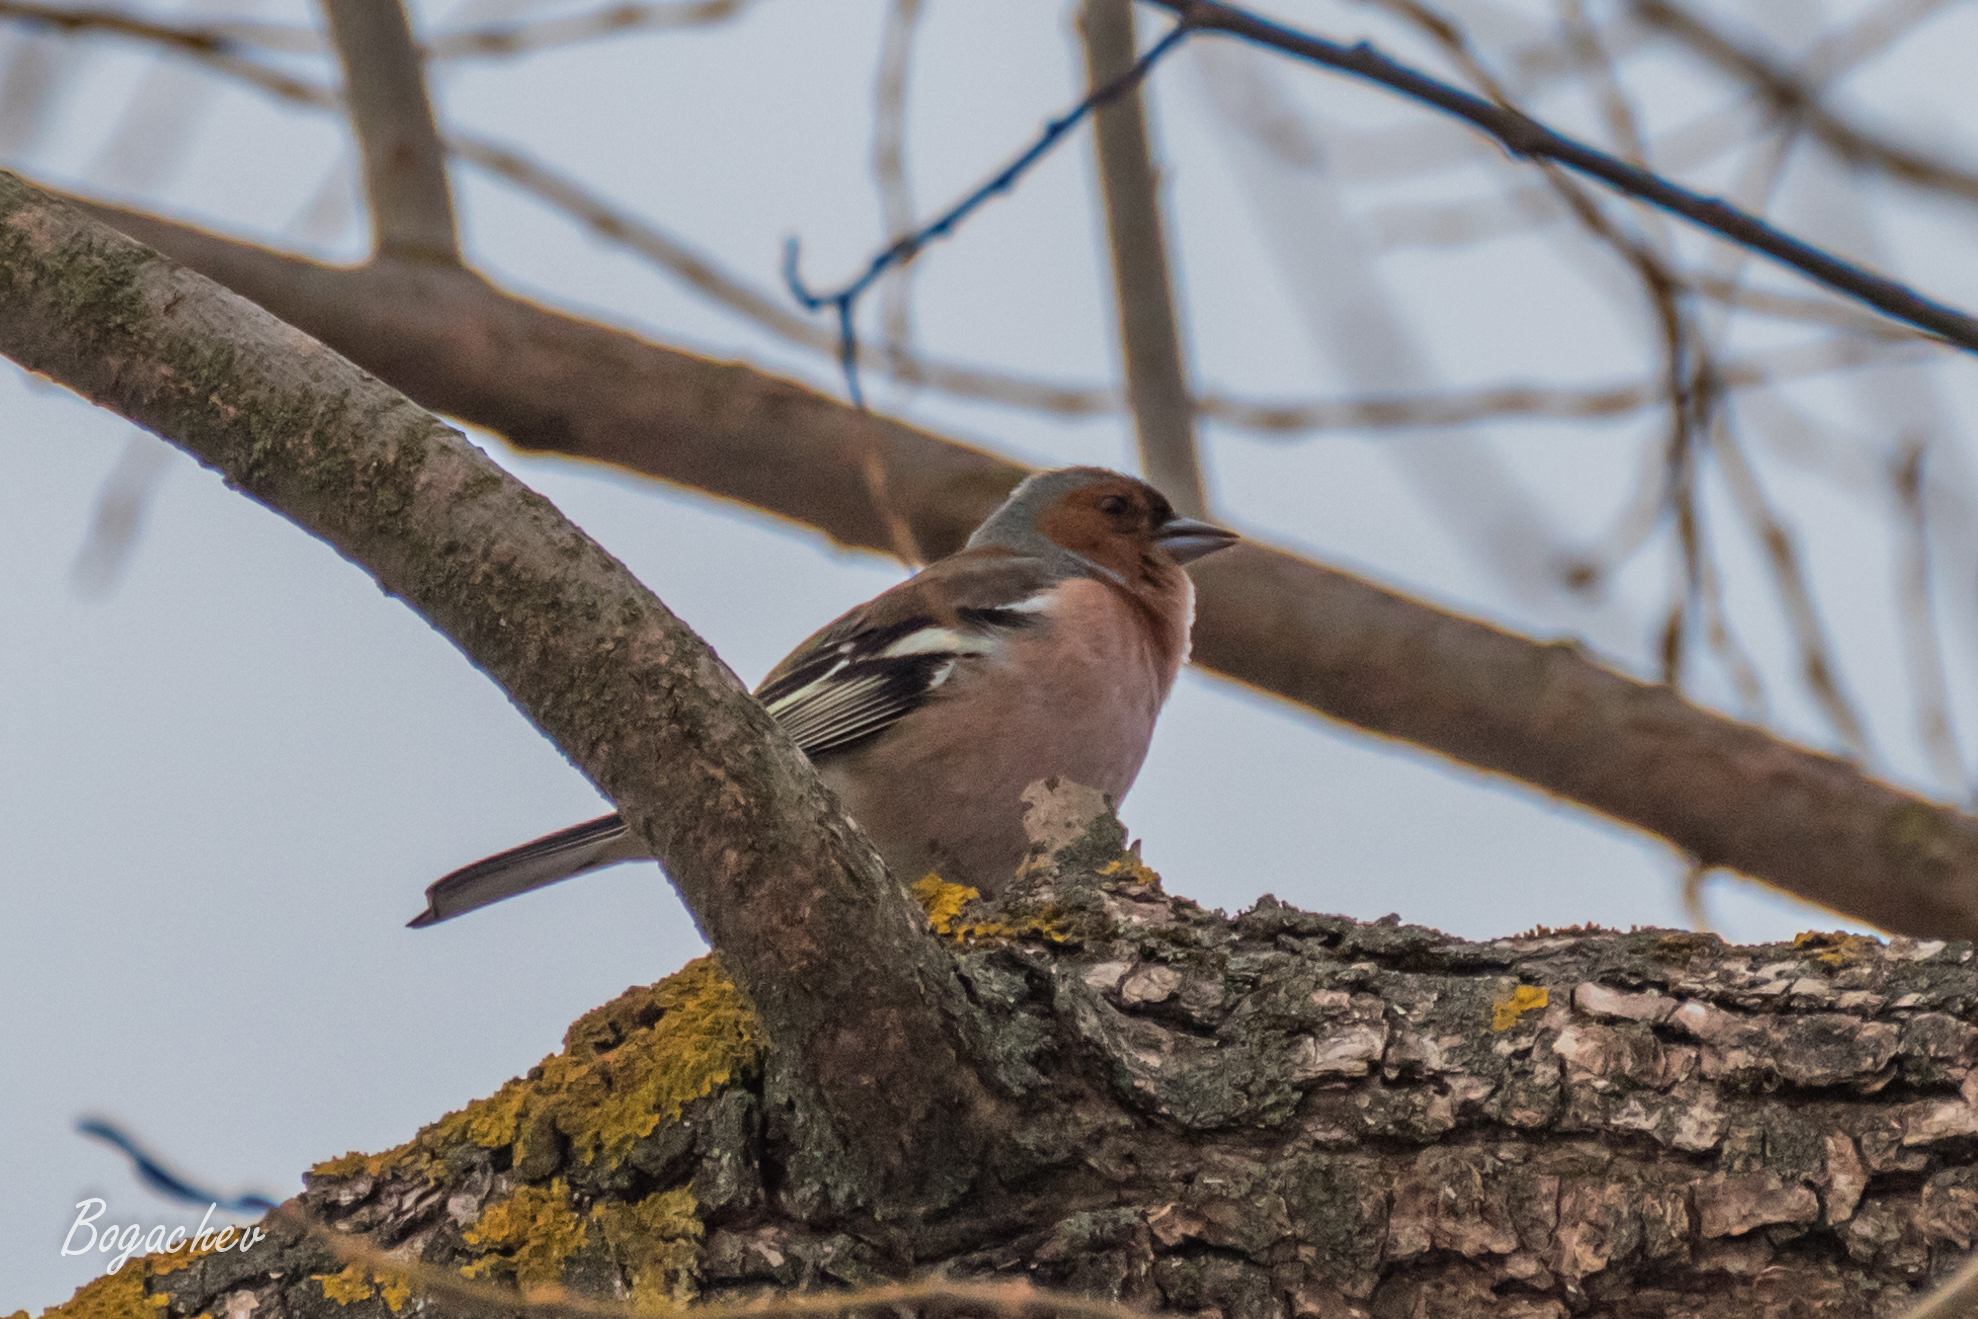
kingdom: Animalia
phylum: Chordata
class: Aves
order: Passeriformes
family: Fringillidae
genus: Fringilla
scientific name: Fringilla coelebs
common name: Common chaffinch
